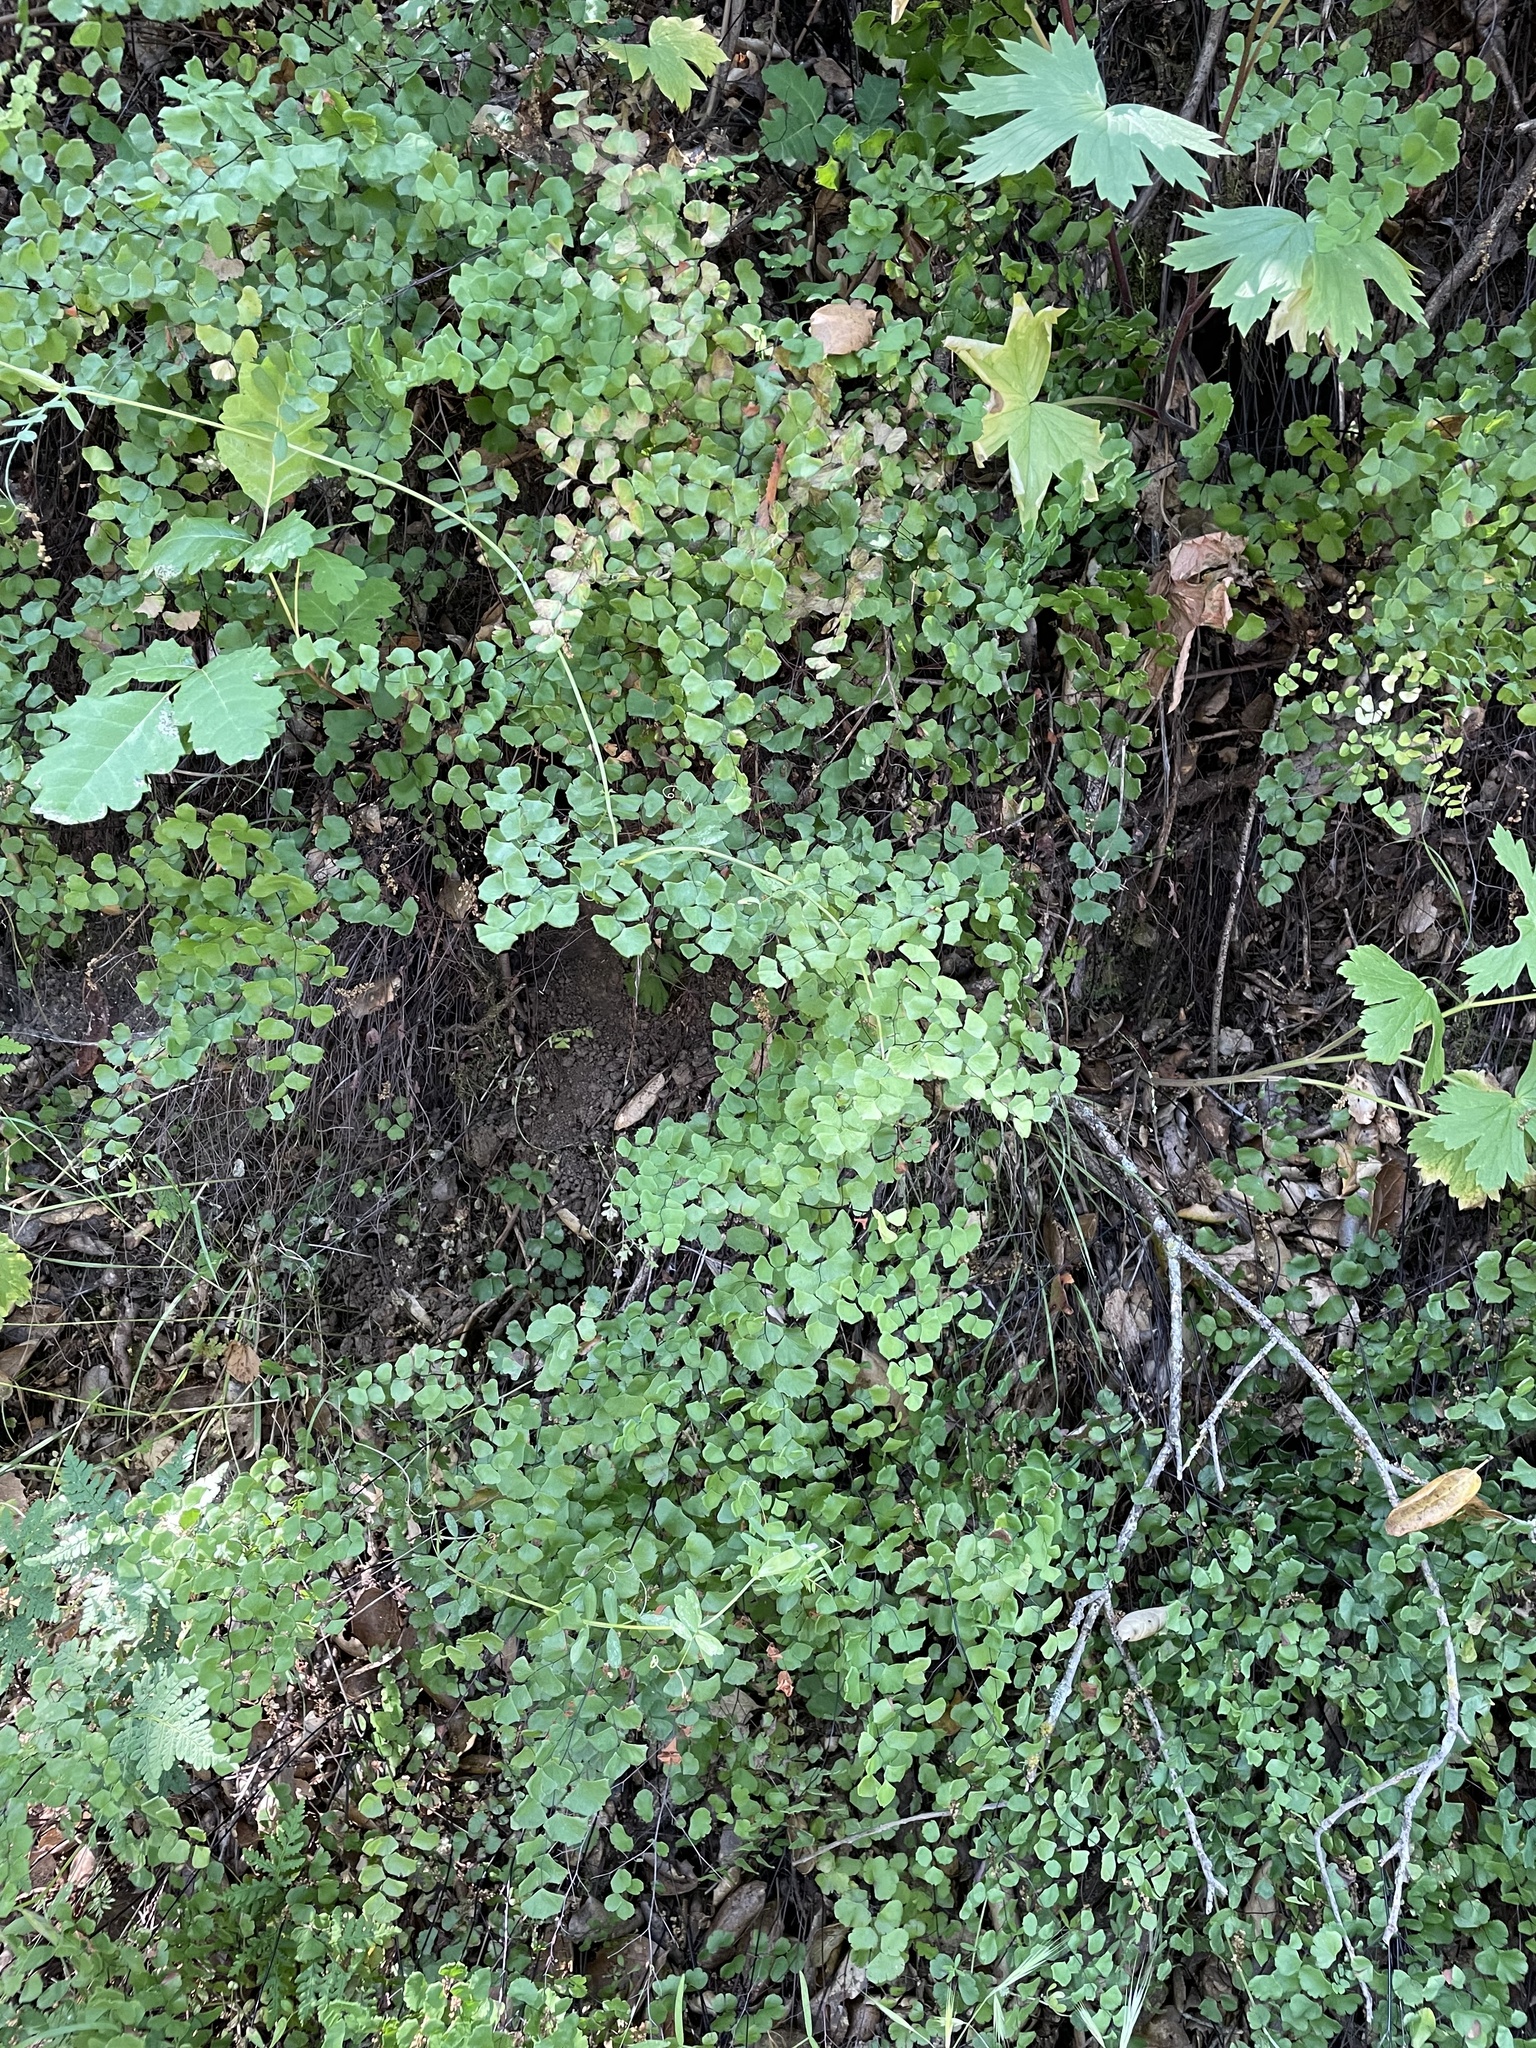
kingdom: Plantae
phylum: Tracheophyta
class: Polypodiopsida
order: Polypodiales
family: Pteridaceae
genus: Adiantum
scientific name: Adiantum jordanii
